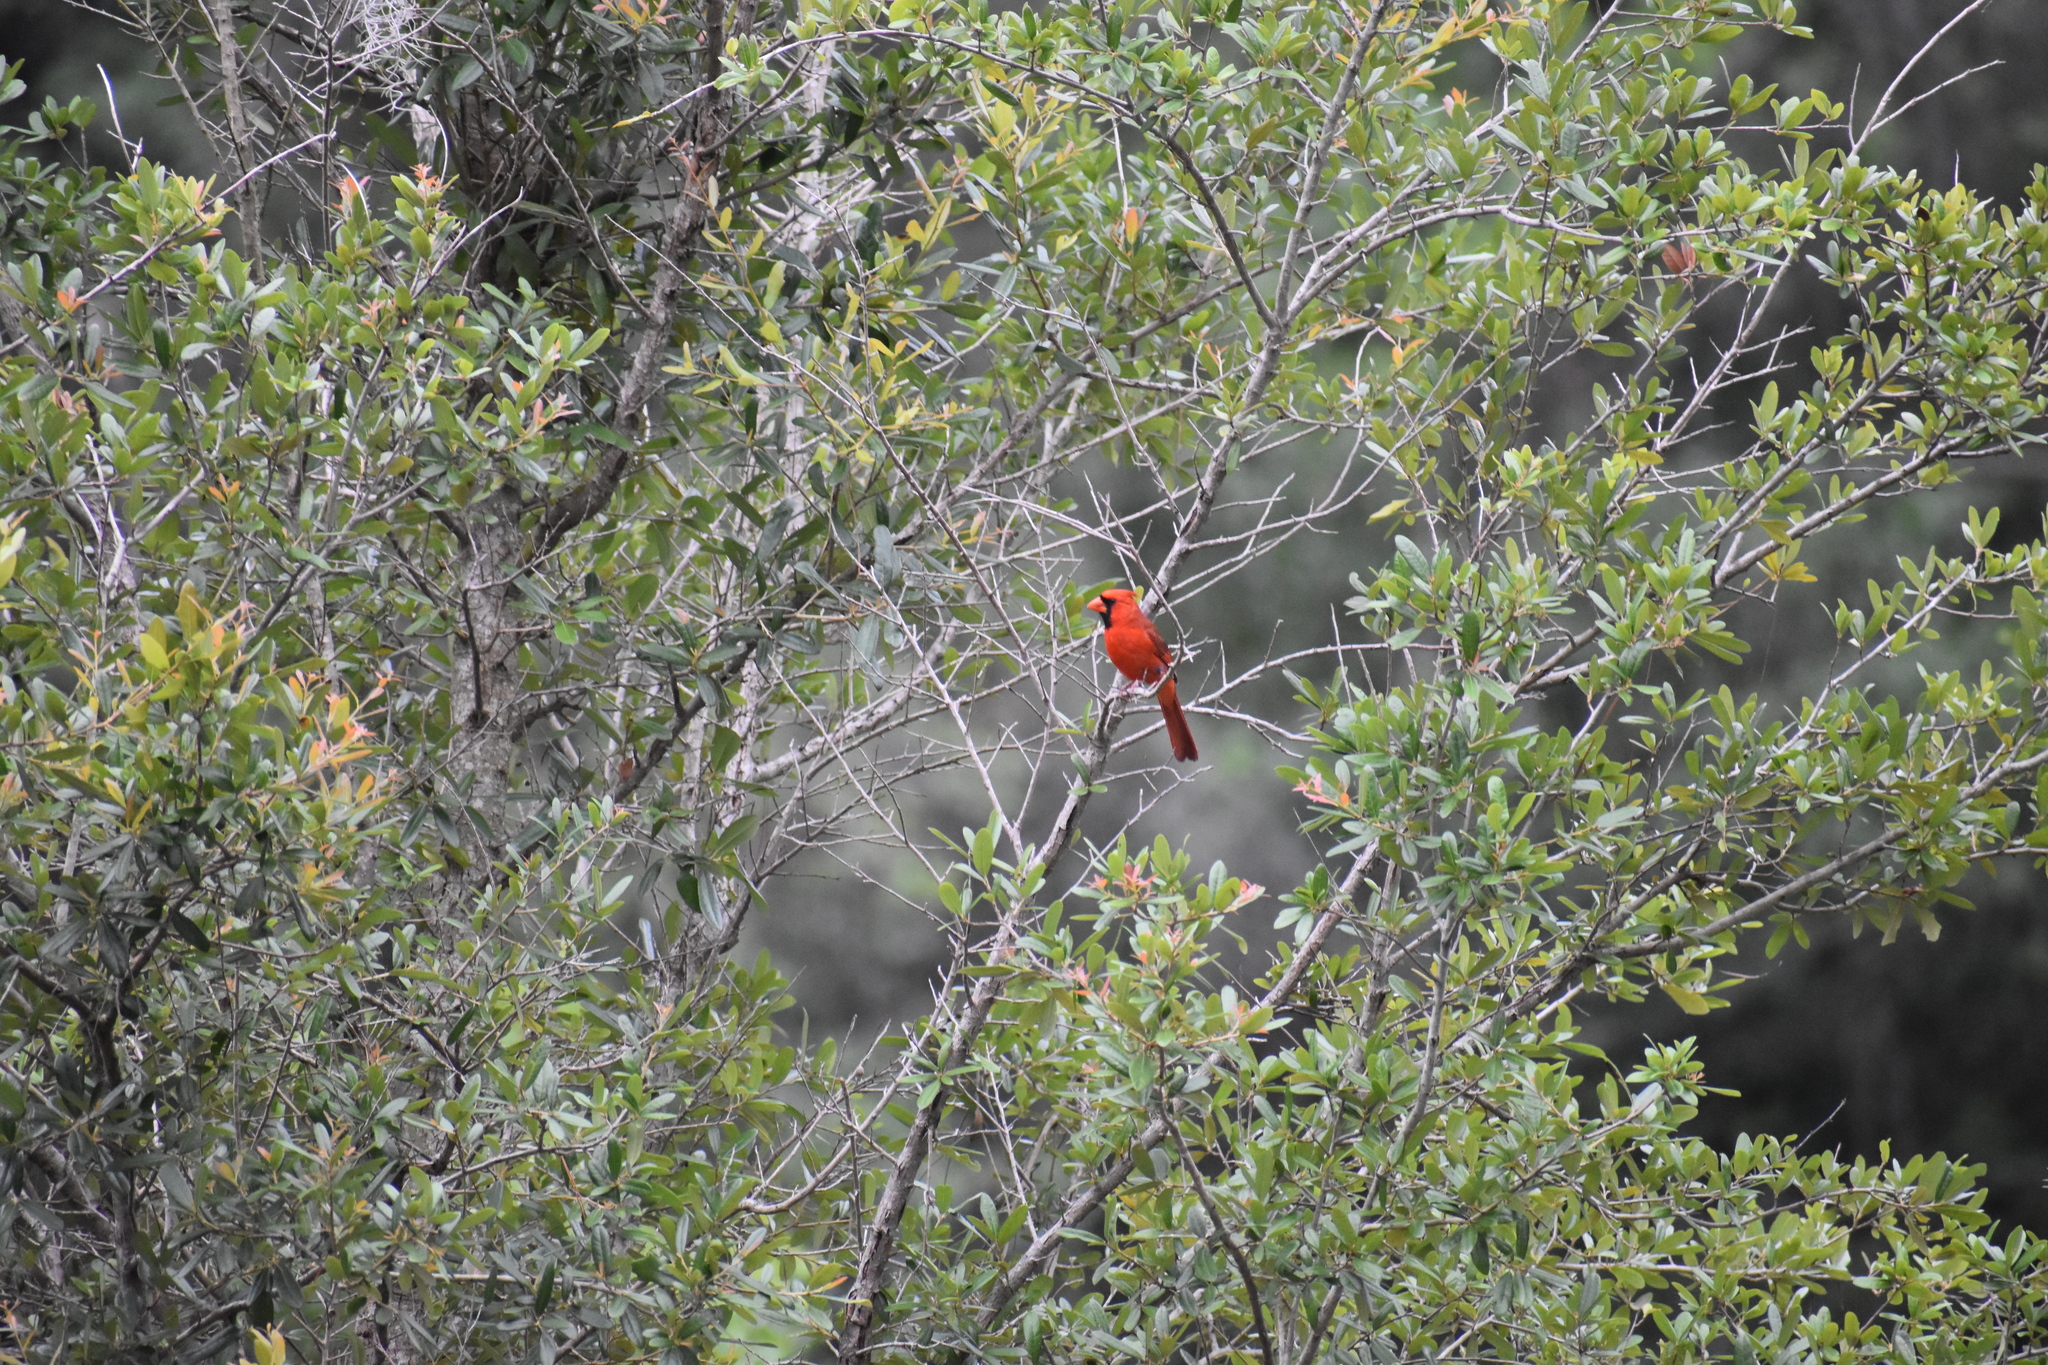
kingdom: Animalia
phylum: Chordata
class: Aves
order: Passeriformes
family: Cardinalidae
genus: Cardinalis
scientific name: Cardinalis cardinalis
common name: Northern cardinal
